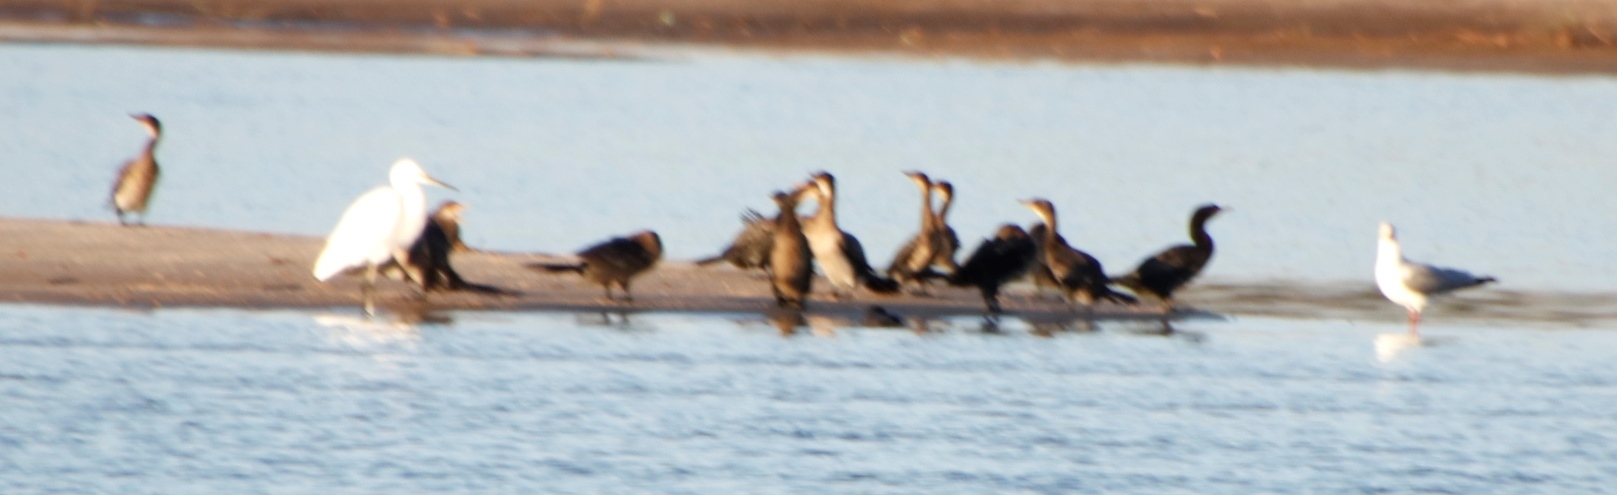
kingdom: Animalia
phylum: Chordata
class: Aves
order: Charadriiformes
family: Laridae
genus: Chroicocephalus
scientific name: Chroicocephalus cirrocephalus
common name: Grey-headed gull
